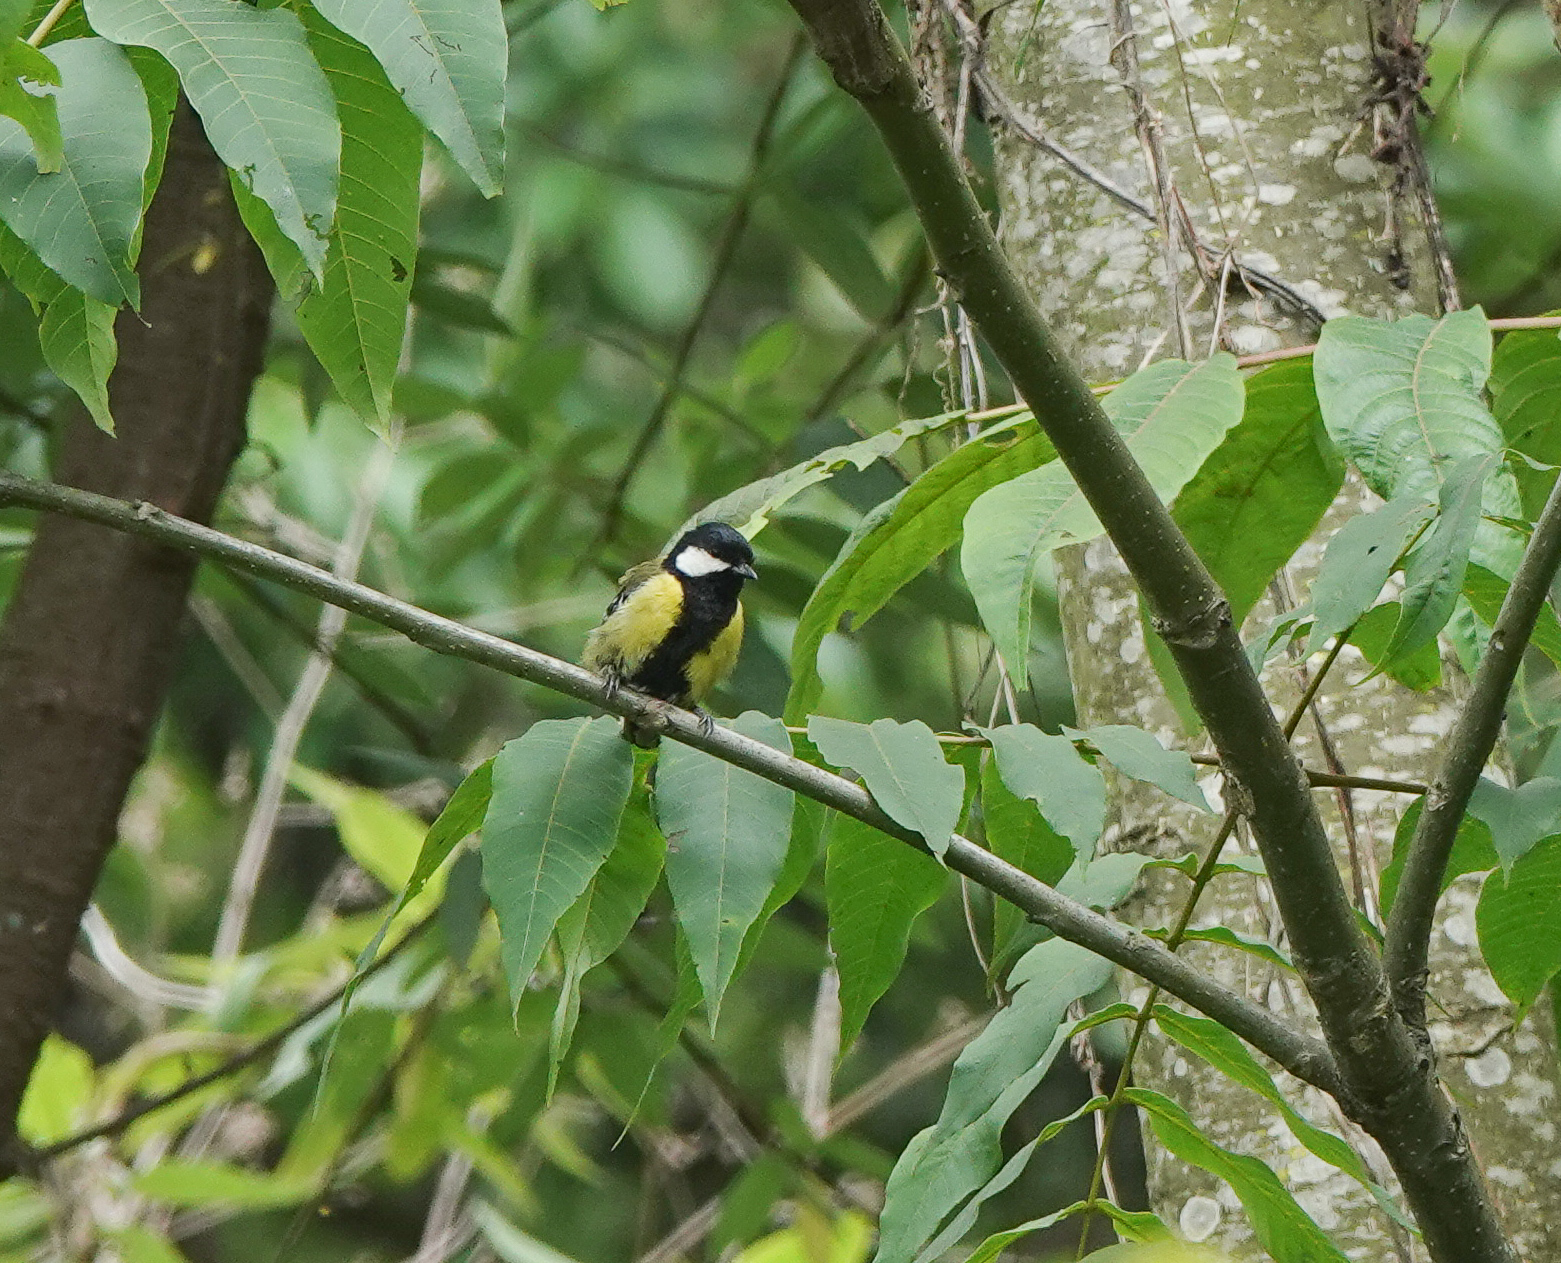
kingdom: Animalia
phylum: Chordata
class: Aves
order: Passeriformes
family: Paridae
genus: Parus
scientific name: Parus monticolus
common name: Green-backed tit
